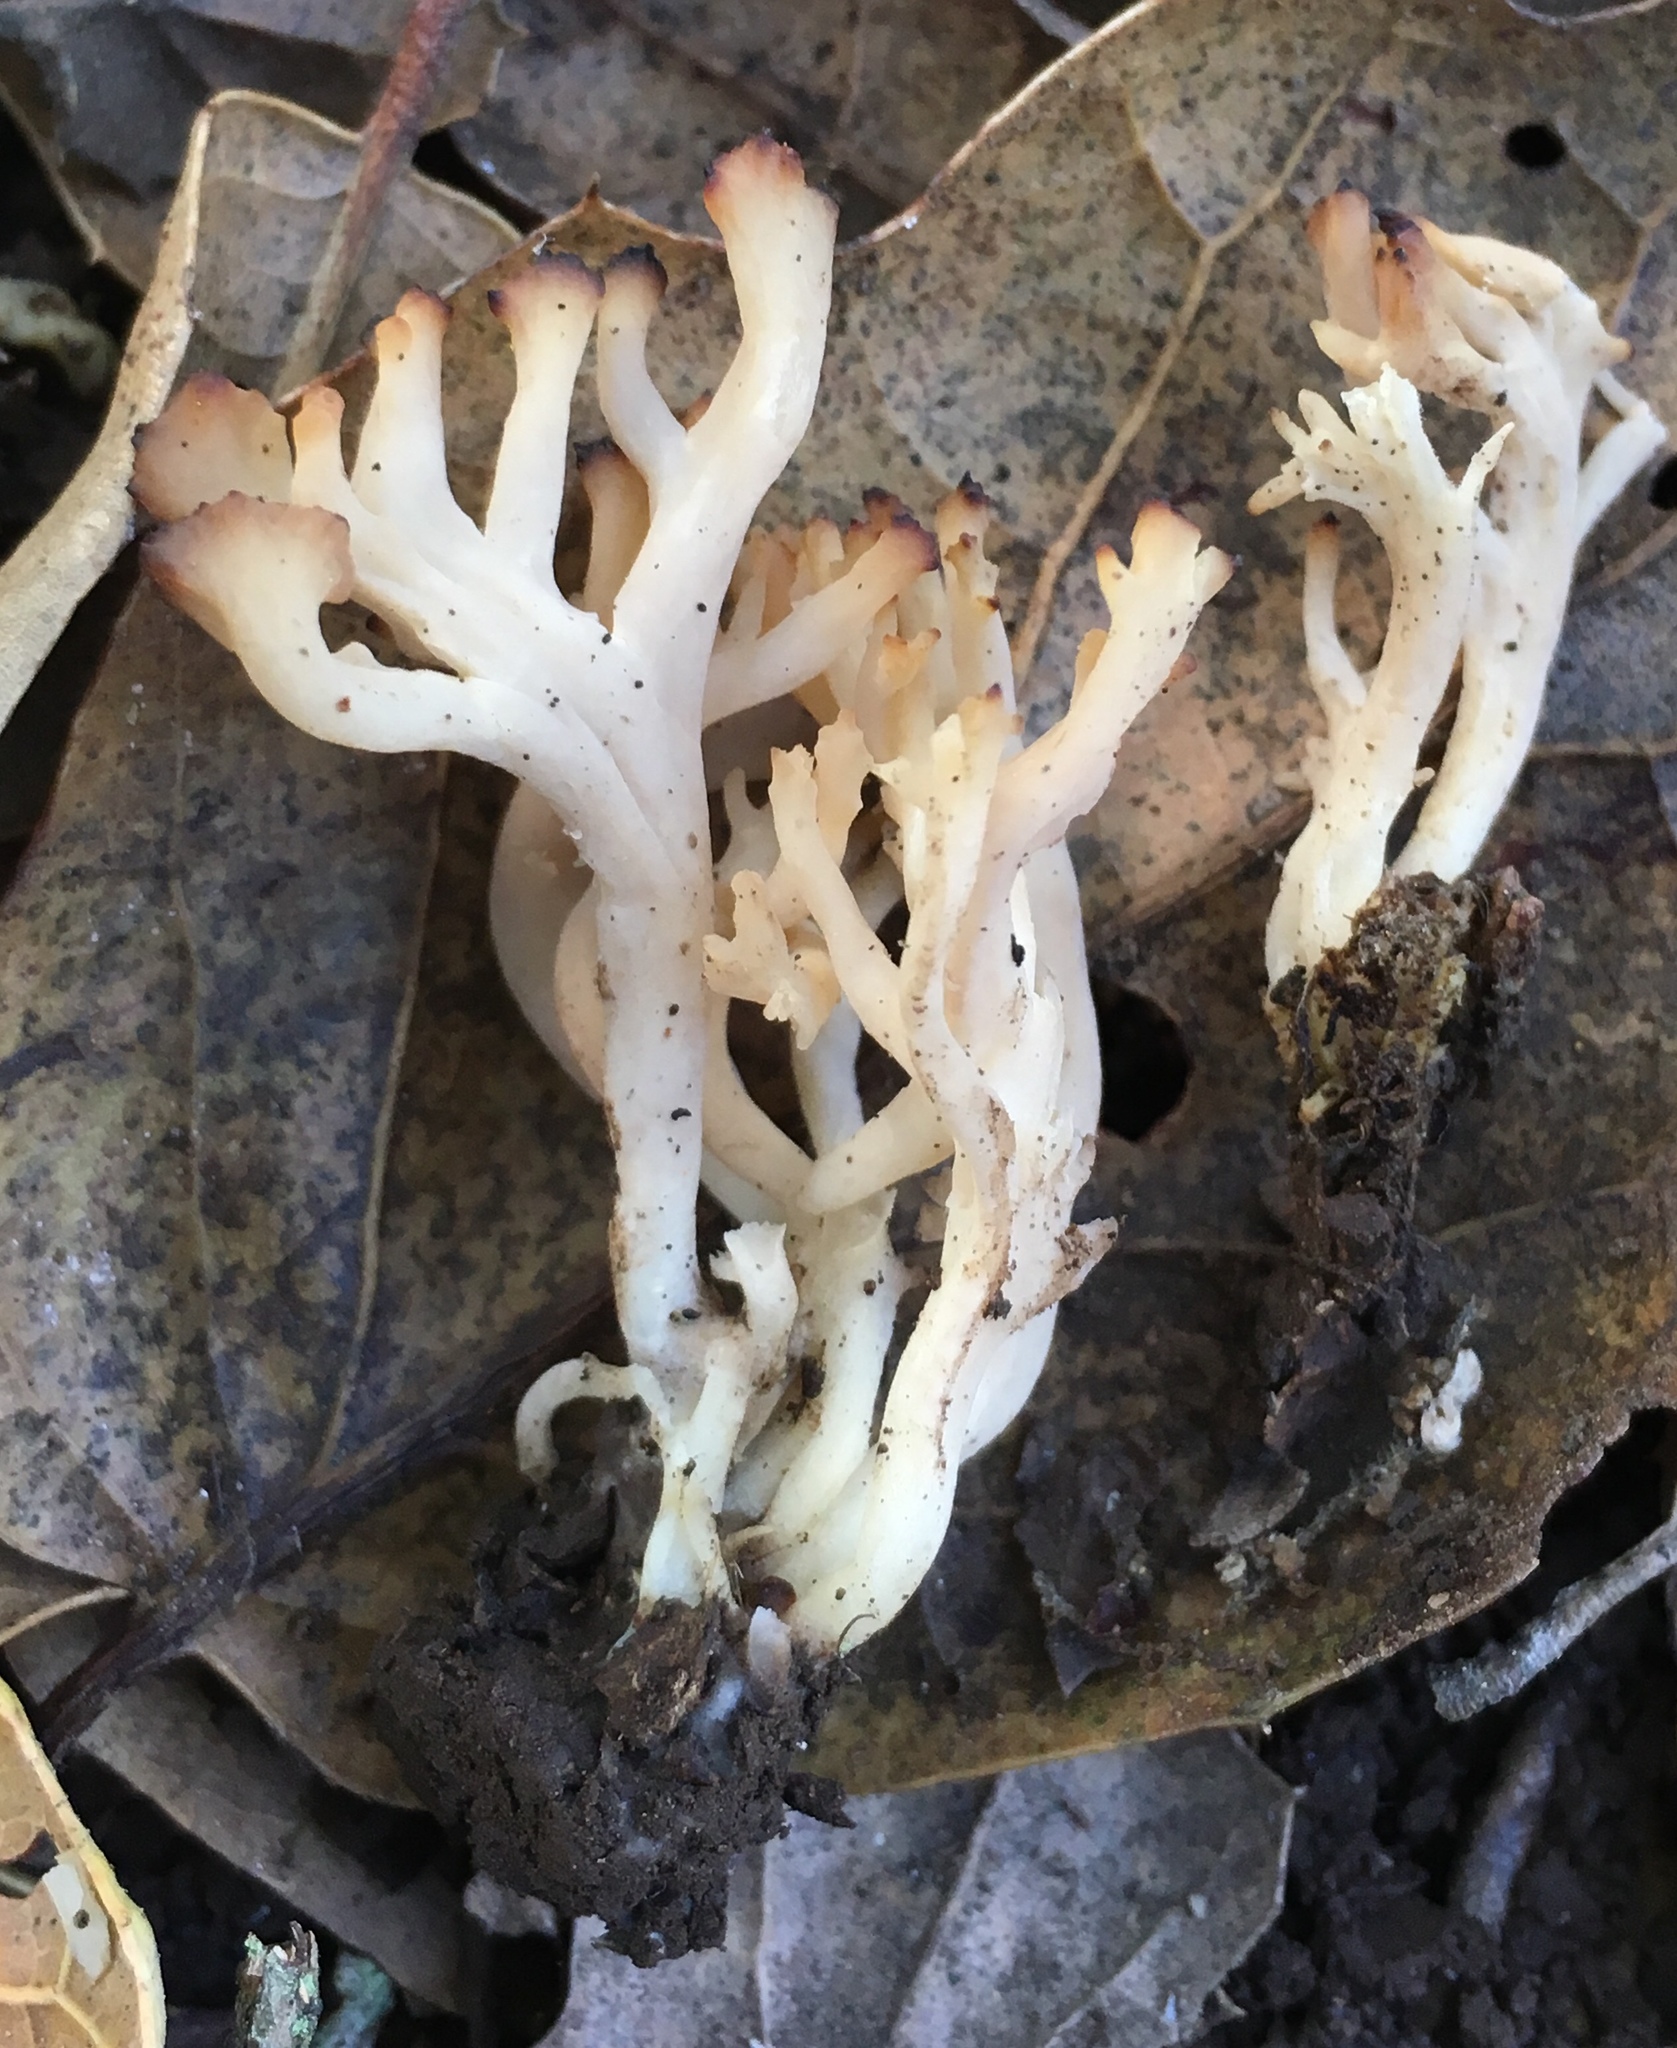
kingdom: Fungi
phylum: Basidiomycota
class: Agaricomycetes
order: Cantharellales
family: Hydnaceae
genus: Clavulina
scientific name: Clavulina coralloides
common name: Crested coral
